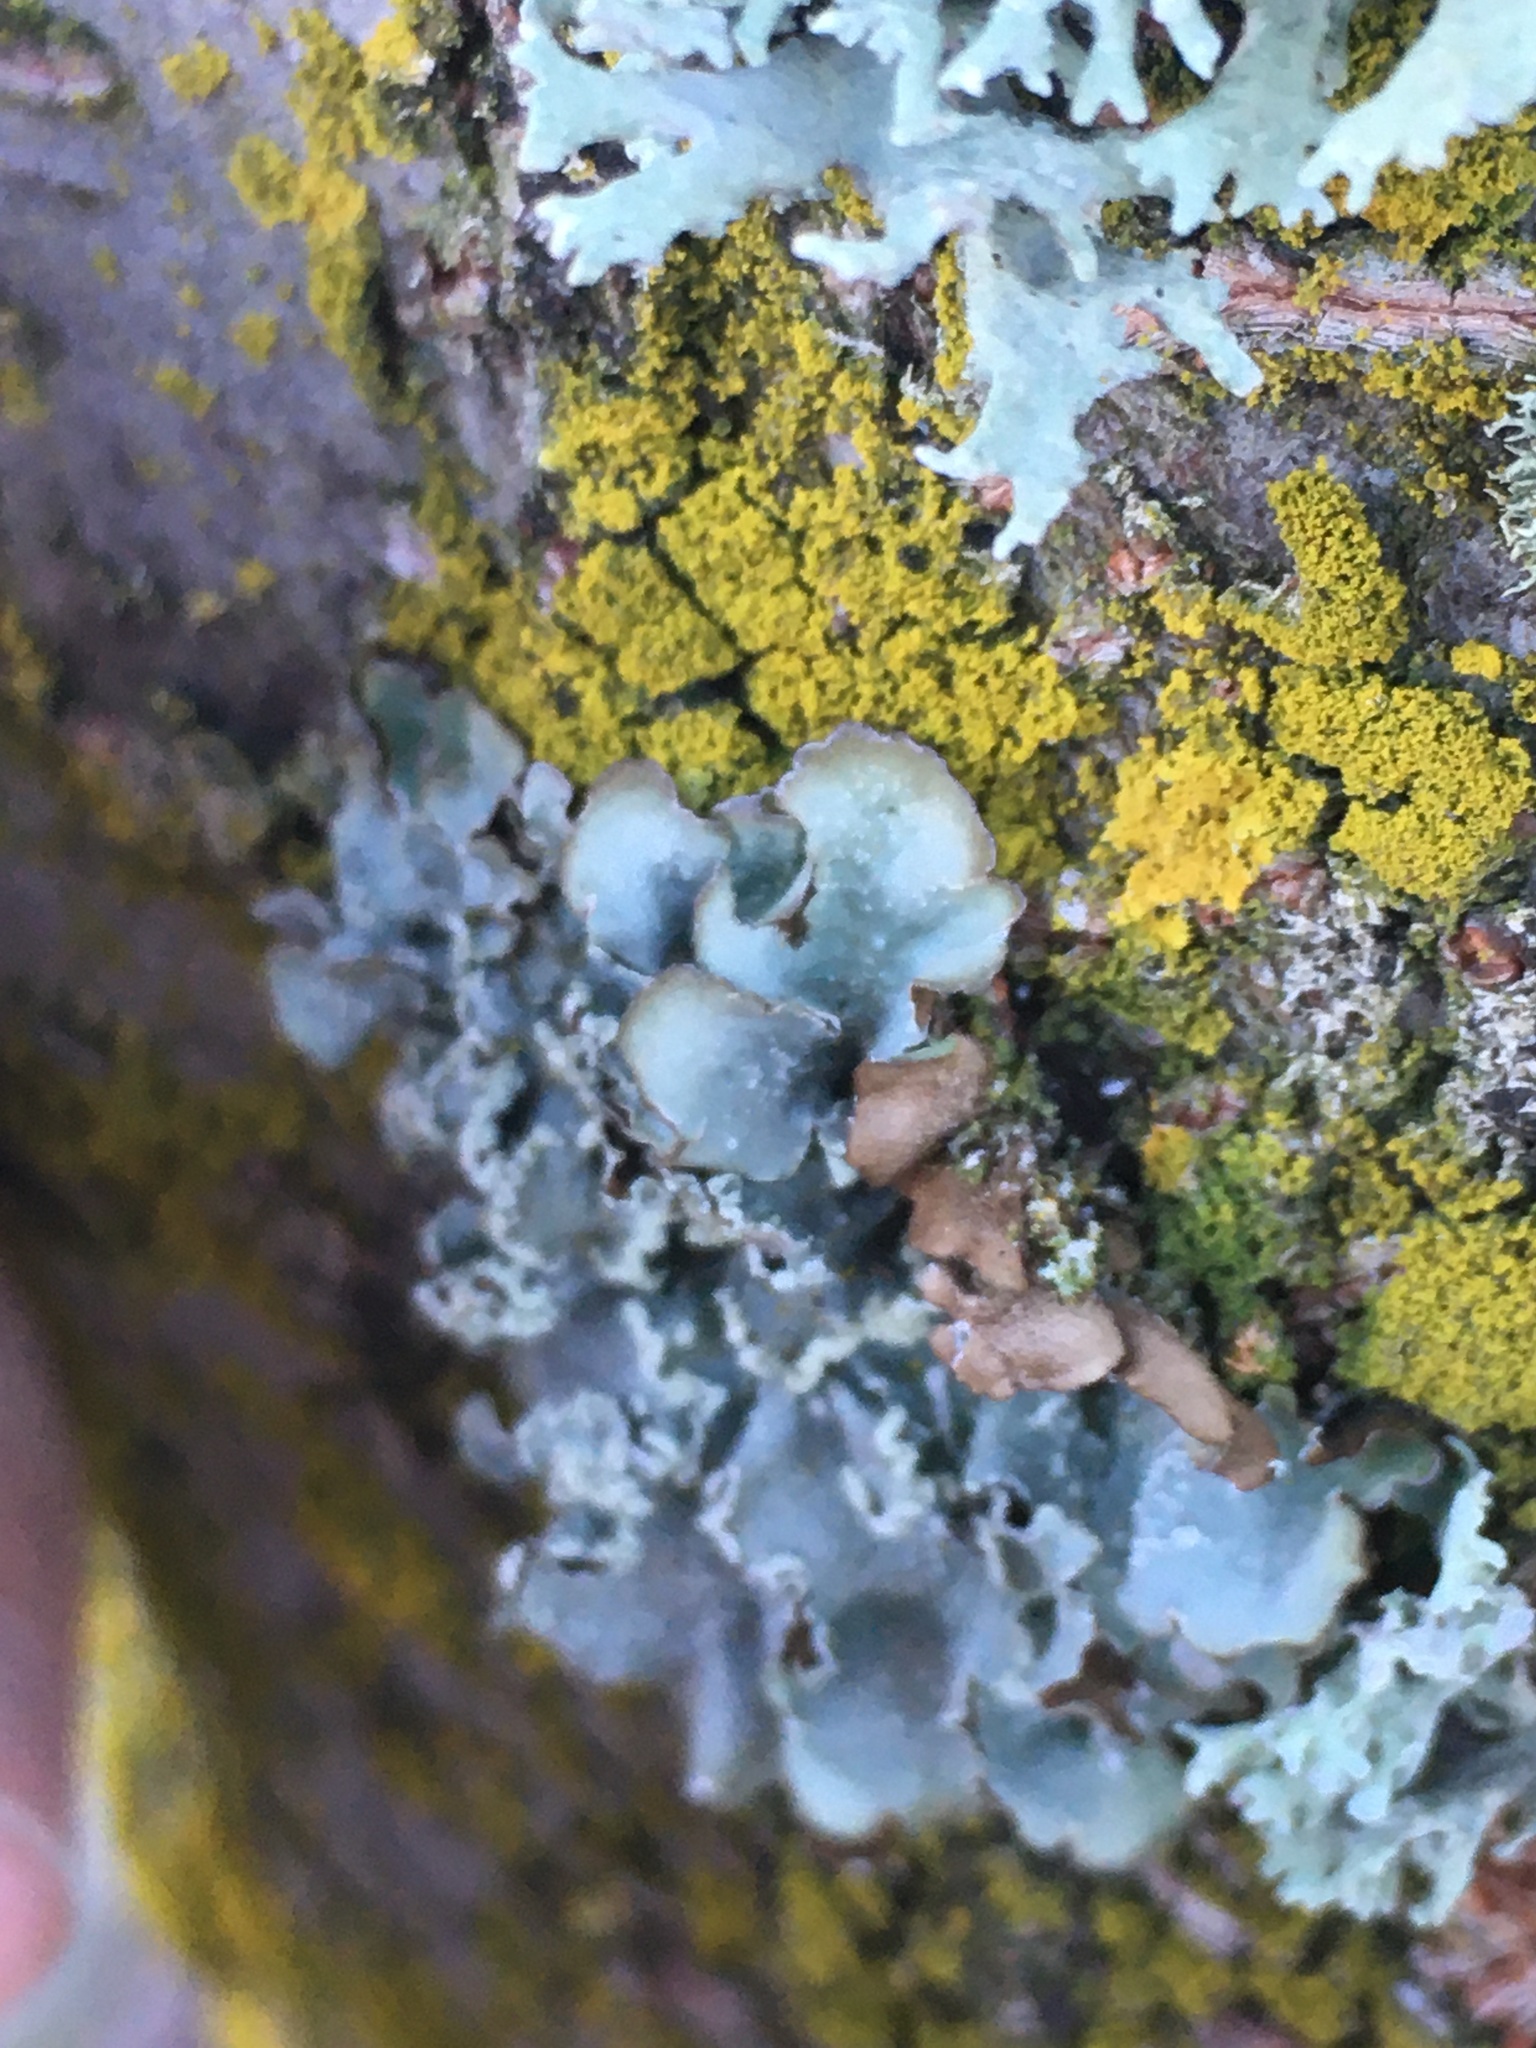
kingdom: Fungi
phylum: Ascomycota
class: Lecanoromycetes
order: Lecanorales
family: Parmeliaceae
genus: Punctelia
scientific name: Punctelia jeckeri
